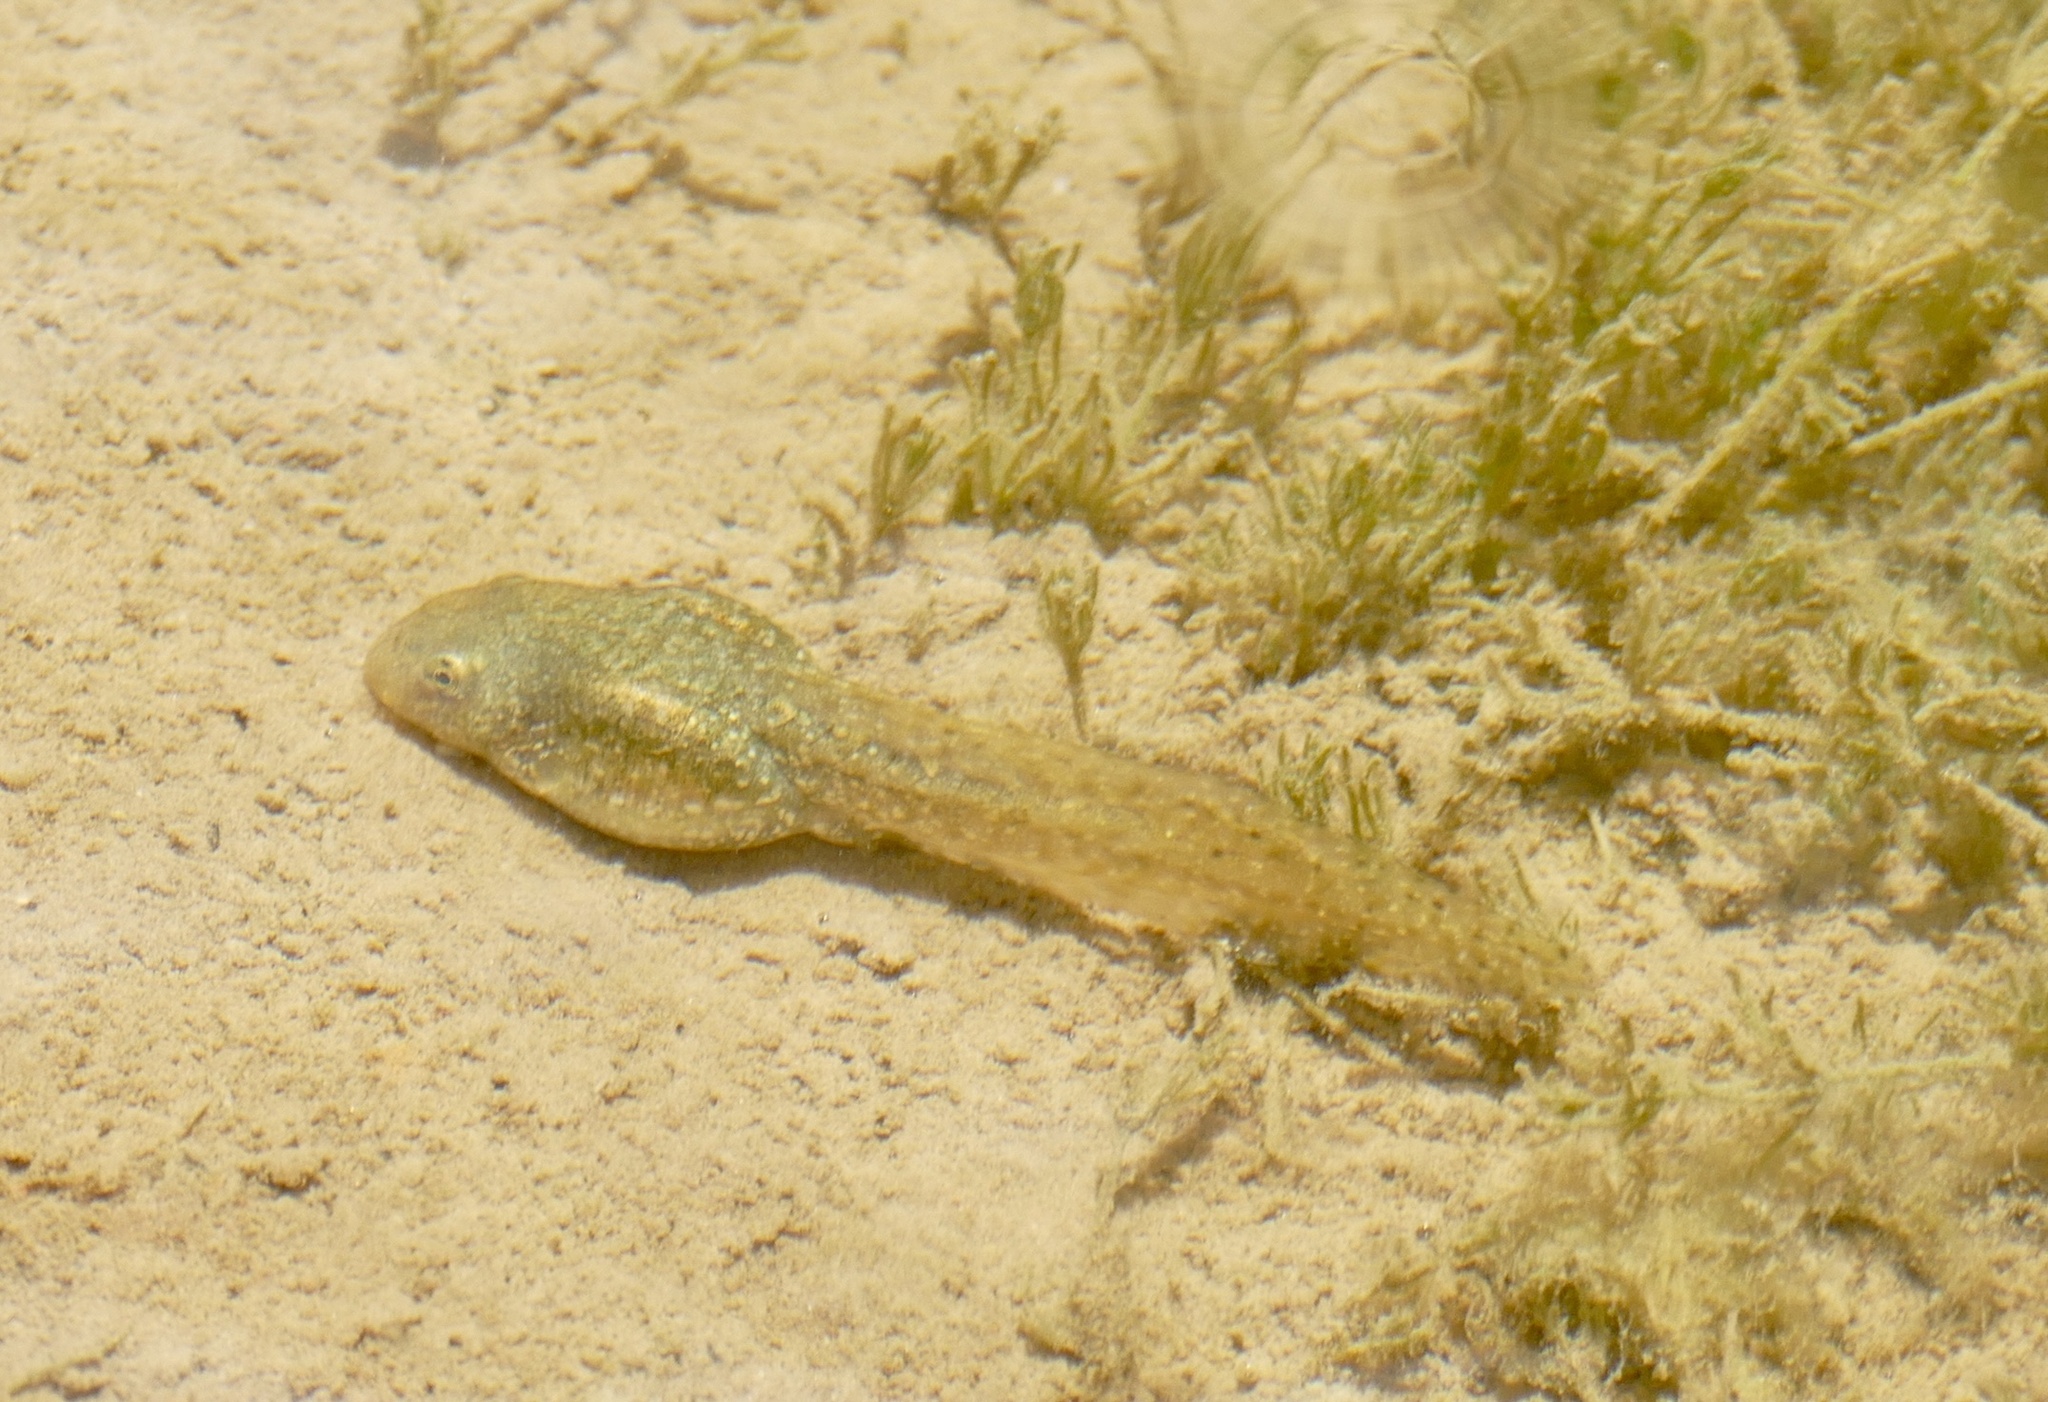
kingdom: Animalia
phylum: Chordata
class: Amphibia
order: Anura
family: Ranidae
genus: Pelophylax
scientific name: Pelophylax saharicus
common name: Sahara frog
